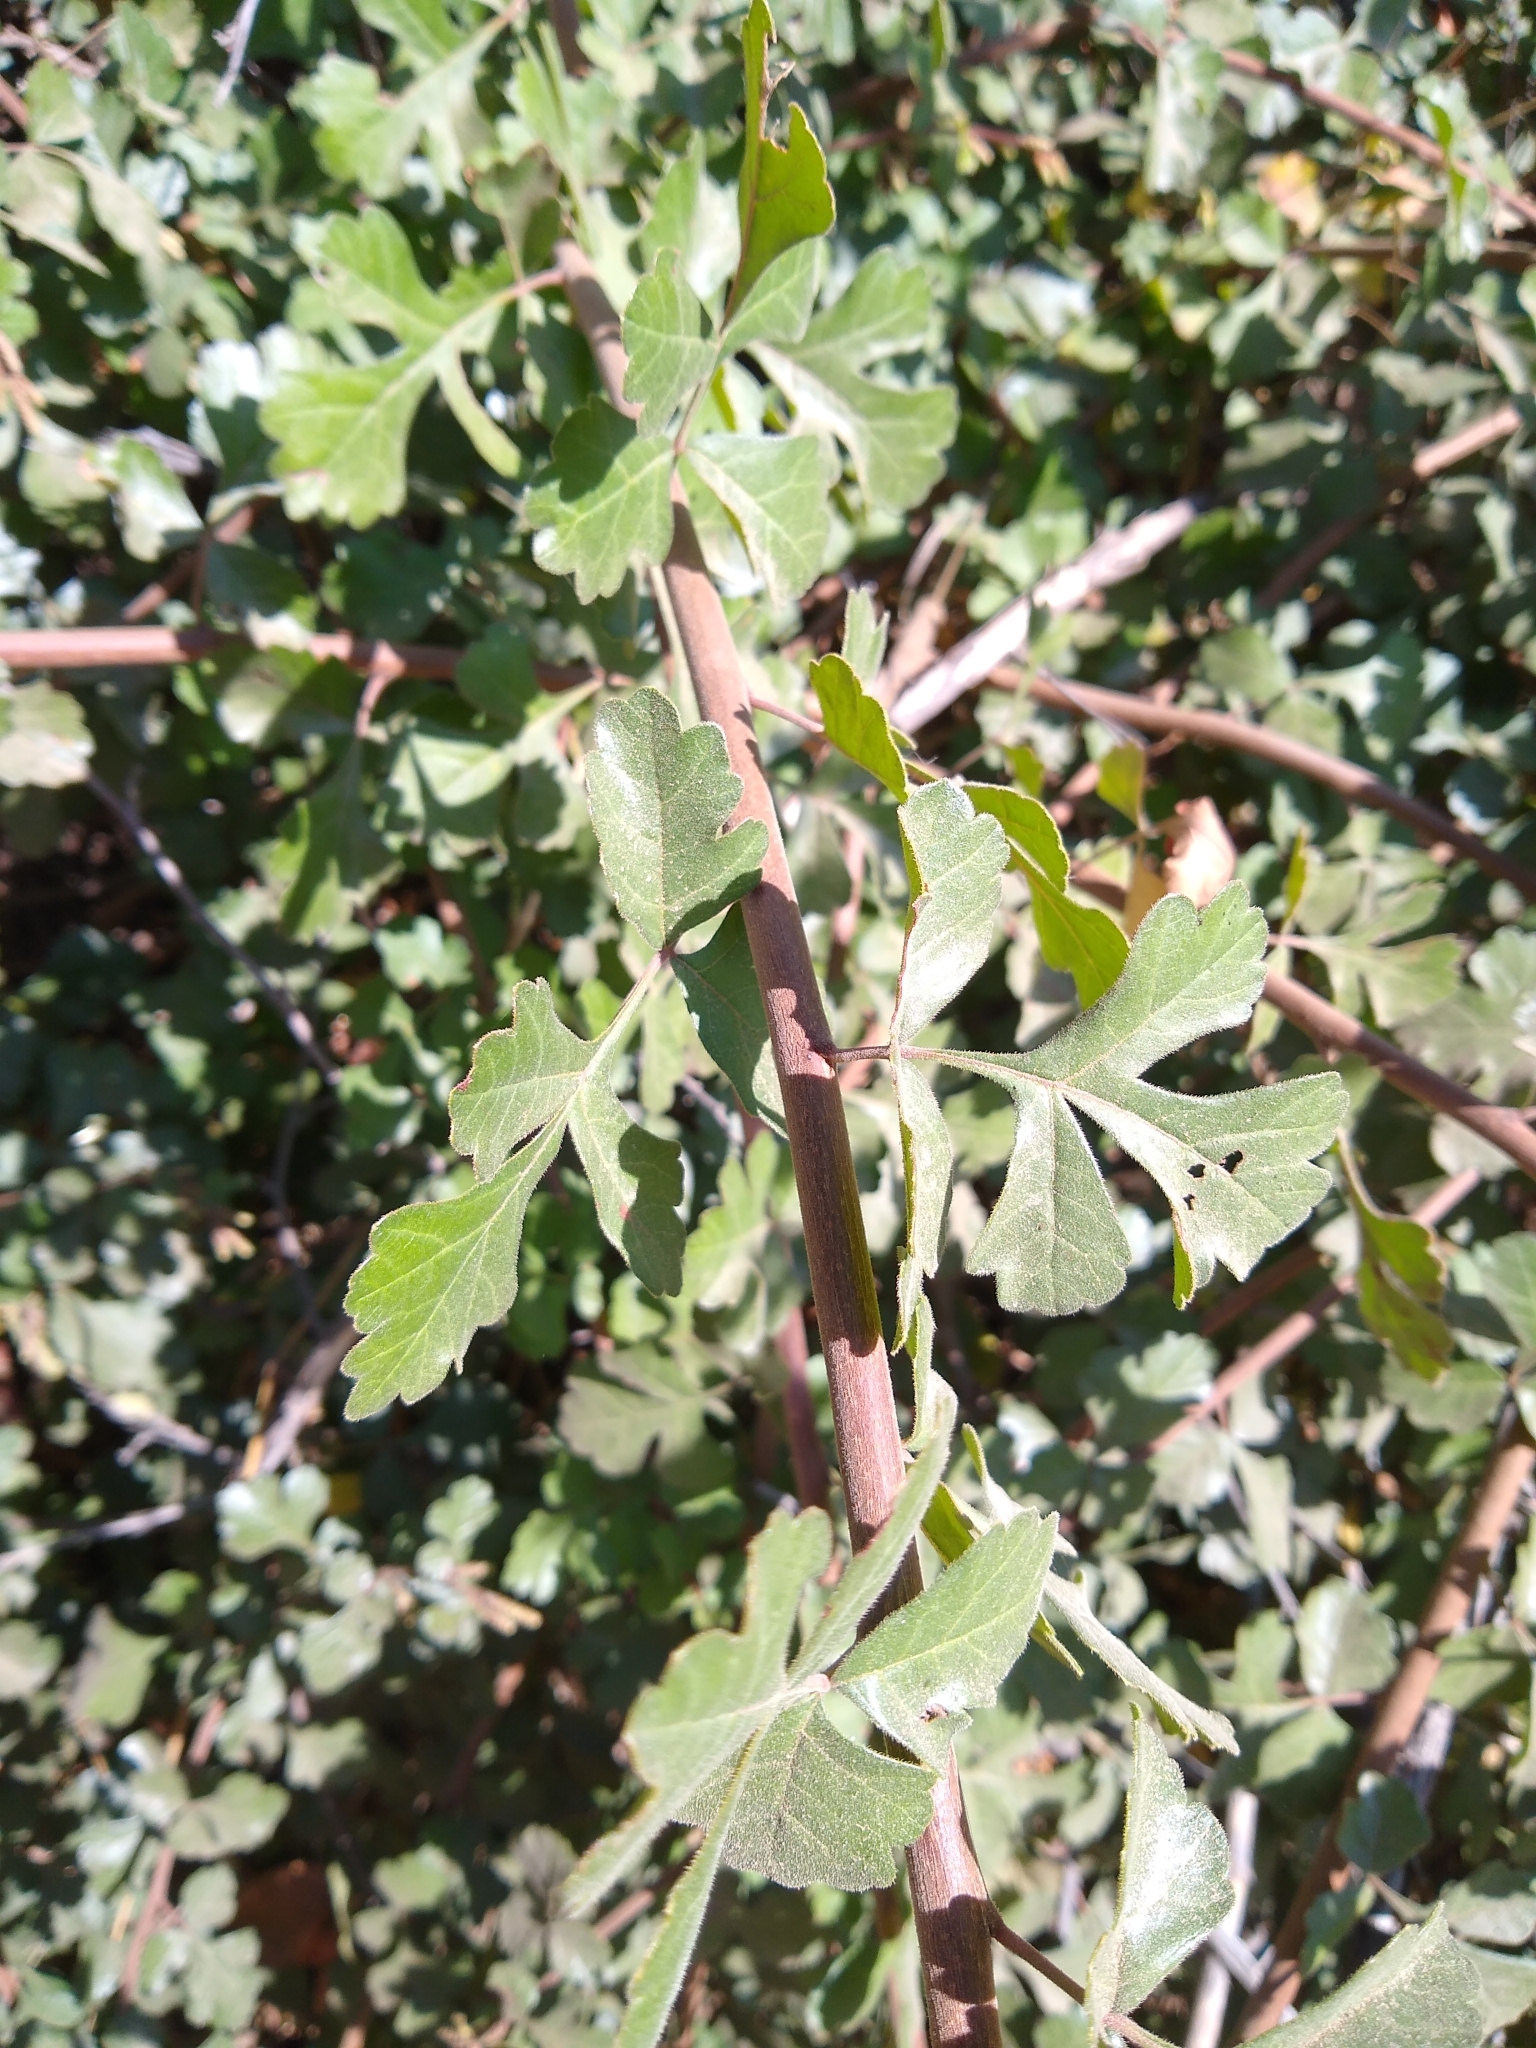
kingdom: Plantae
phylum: Tracheophyta
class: Magnoliopsida
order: Sapindales
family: Anacardiaceae
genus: Rhus
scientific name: Rhus aromatica
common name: Aromatic sumac
